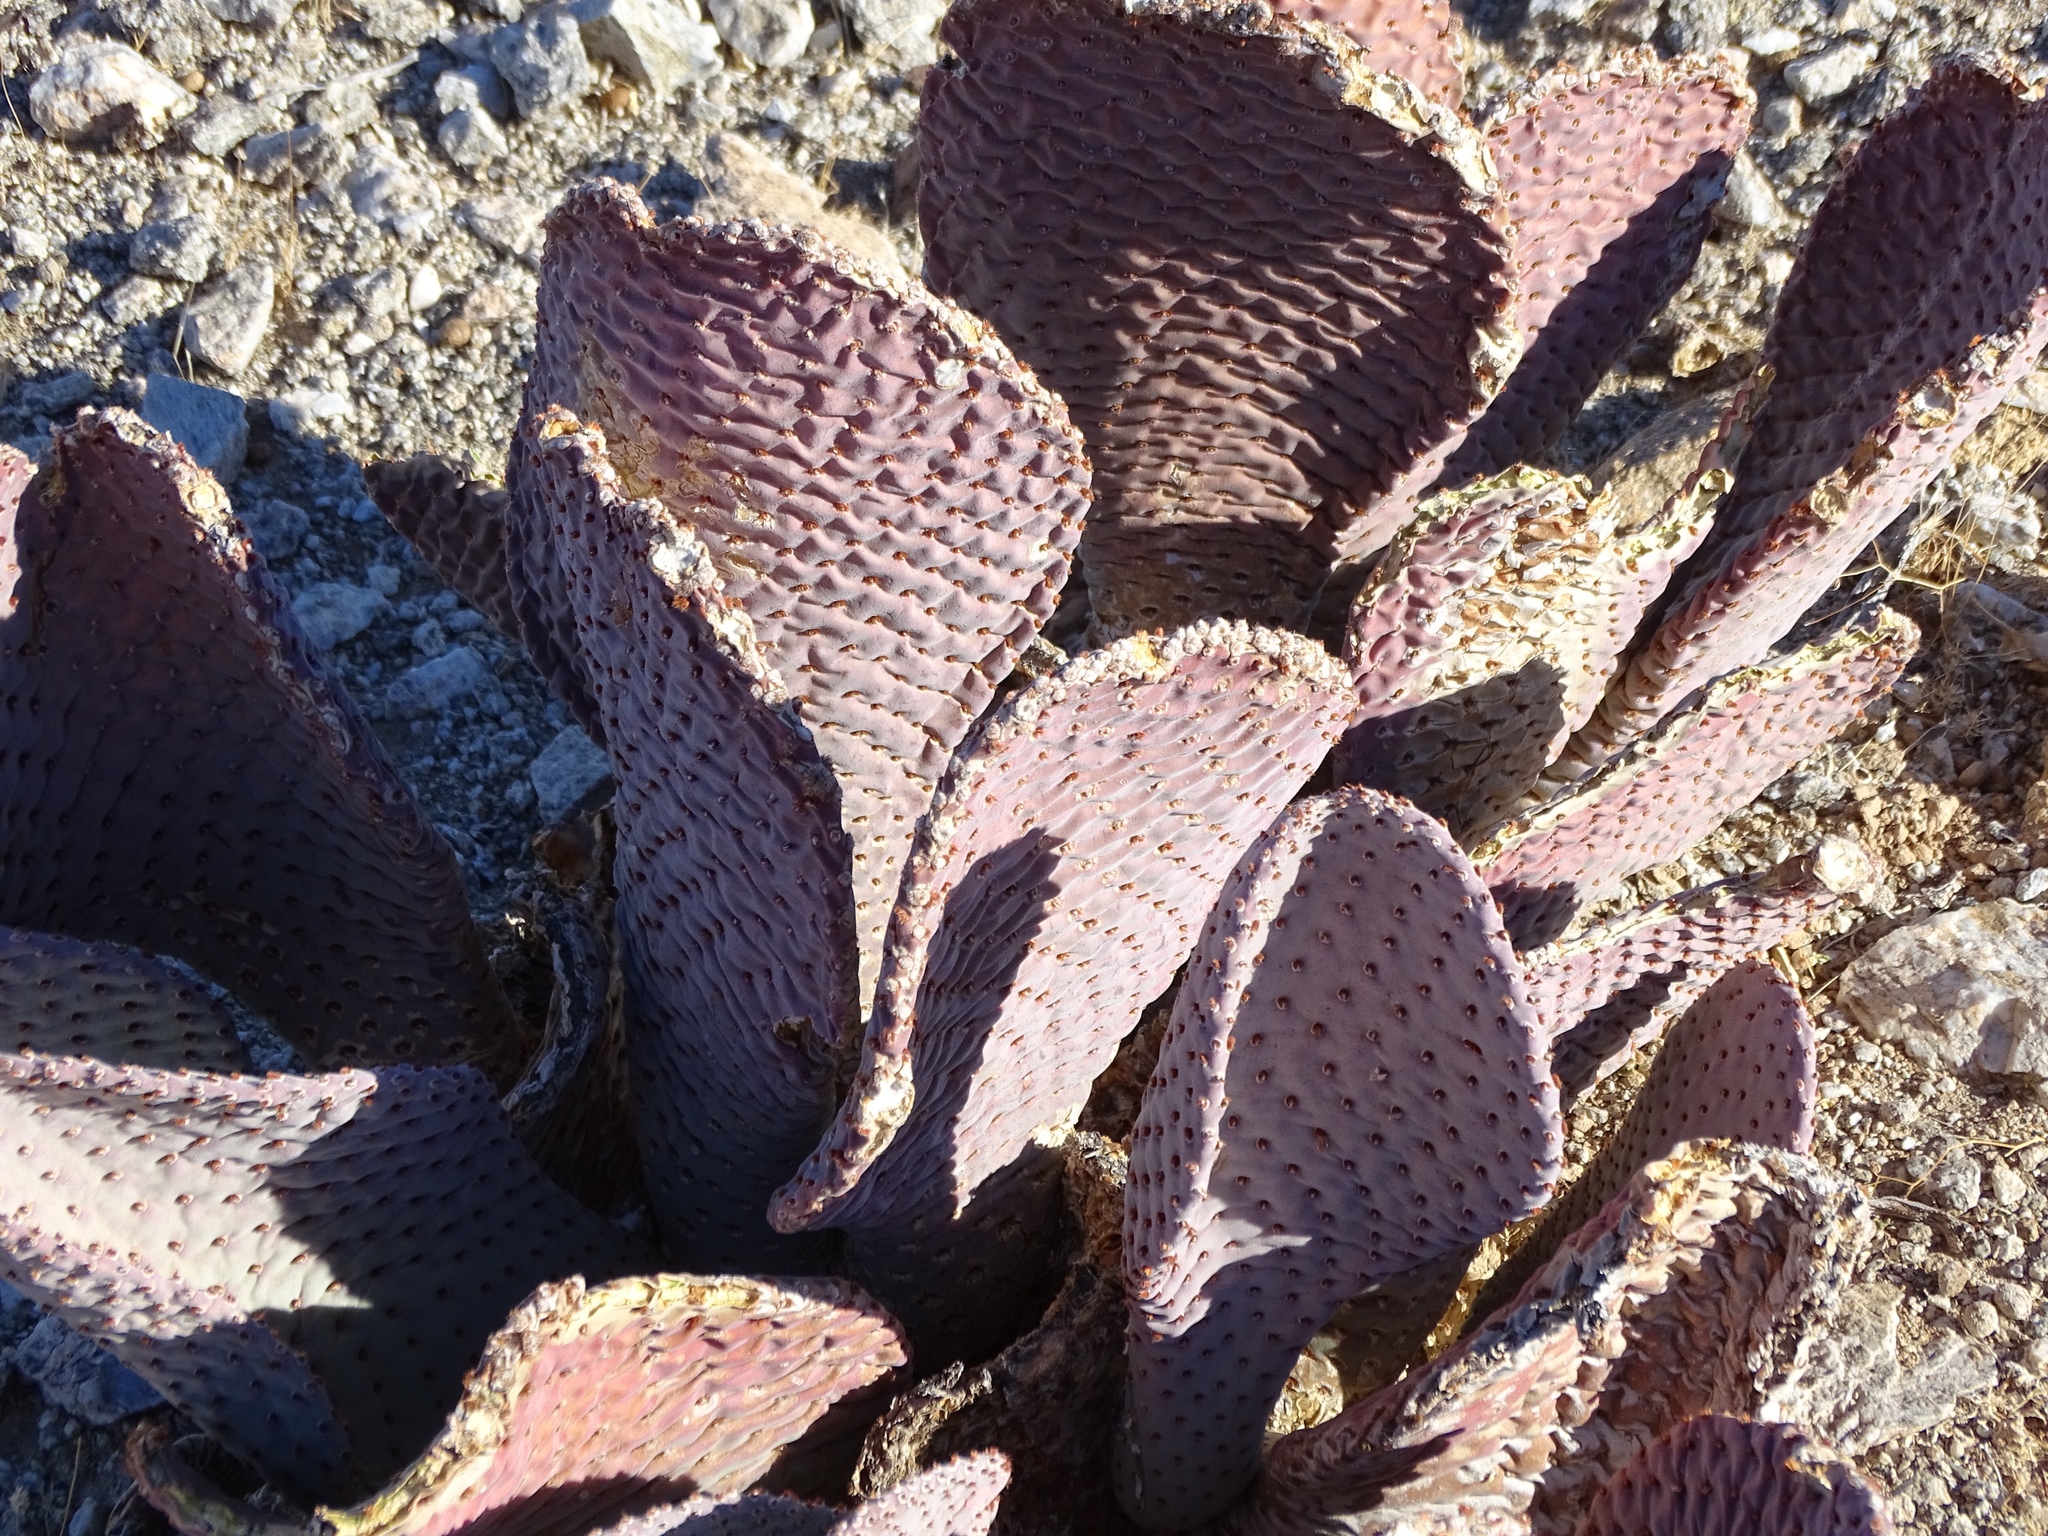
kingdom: Plantae
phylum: Tracheophyta
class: Magnoliopsida
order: Caryophyllales
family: Cactaceae
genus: Opuntia
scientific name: Opuntia basilaris
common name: Beavertail prickly-pear
